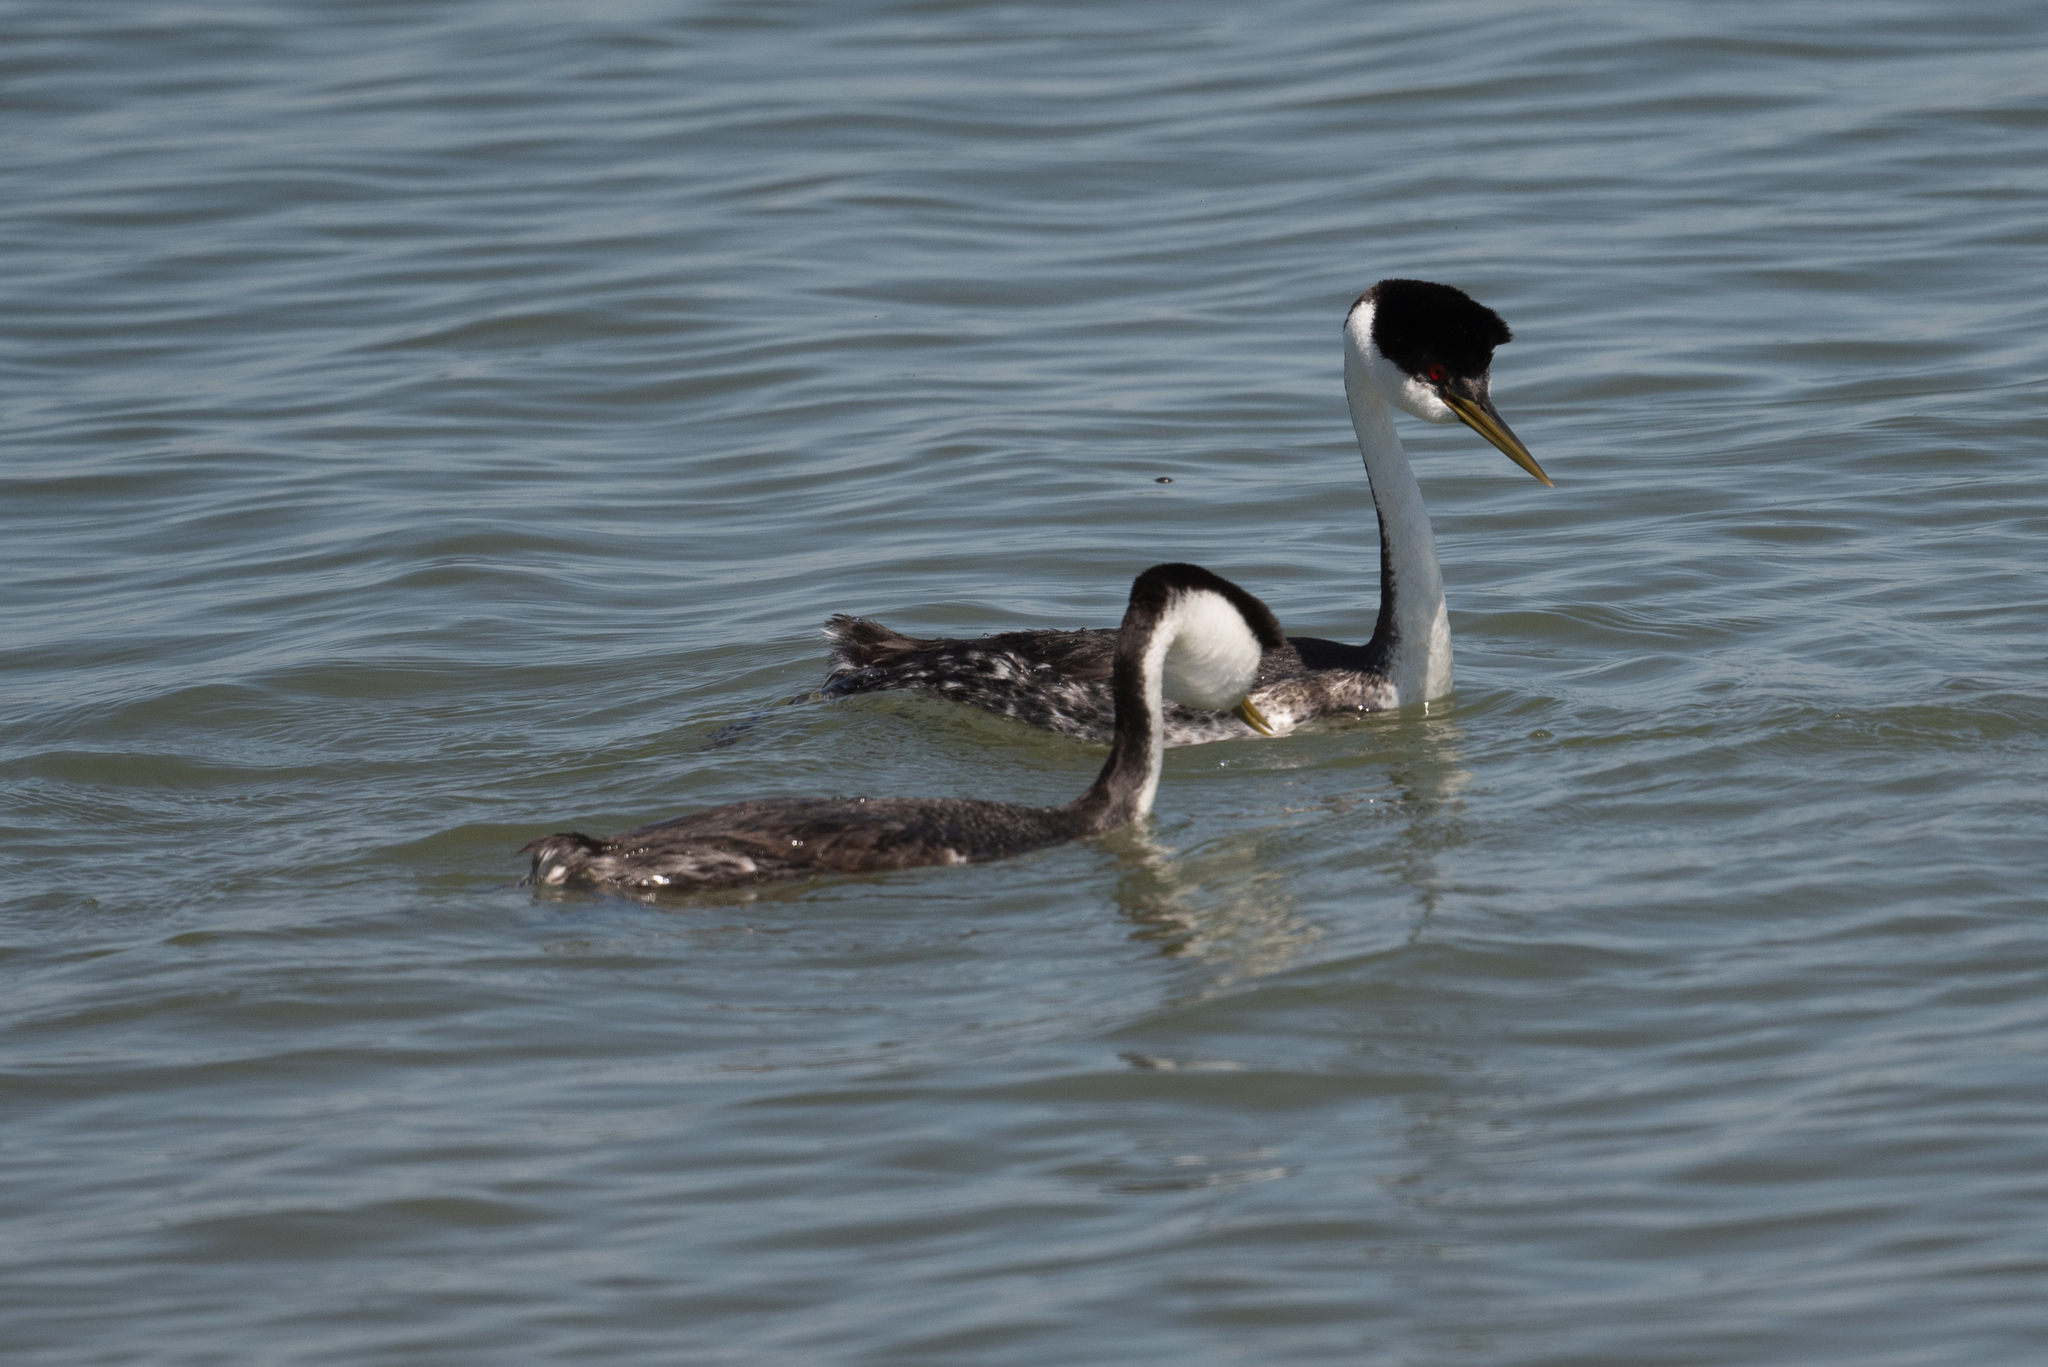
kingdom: Animalia
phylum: Chordata
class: Aves
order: Podicipediformes
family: Podicipedidae
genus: Aechmophorus
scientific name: Aechmophorus occidentalis
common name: Western grebe
